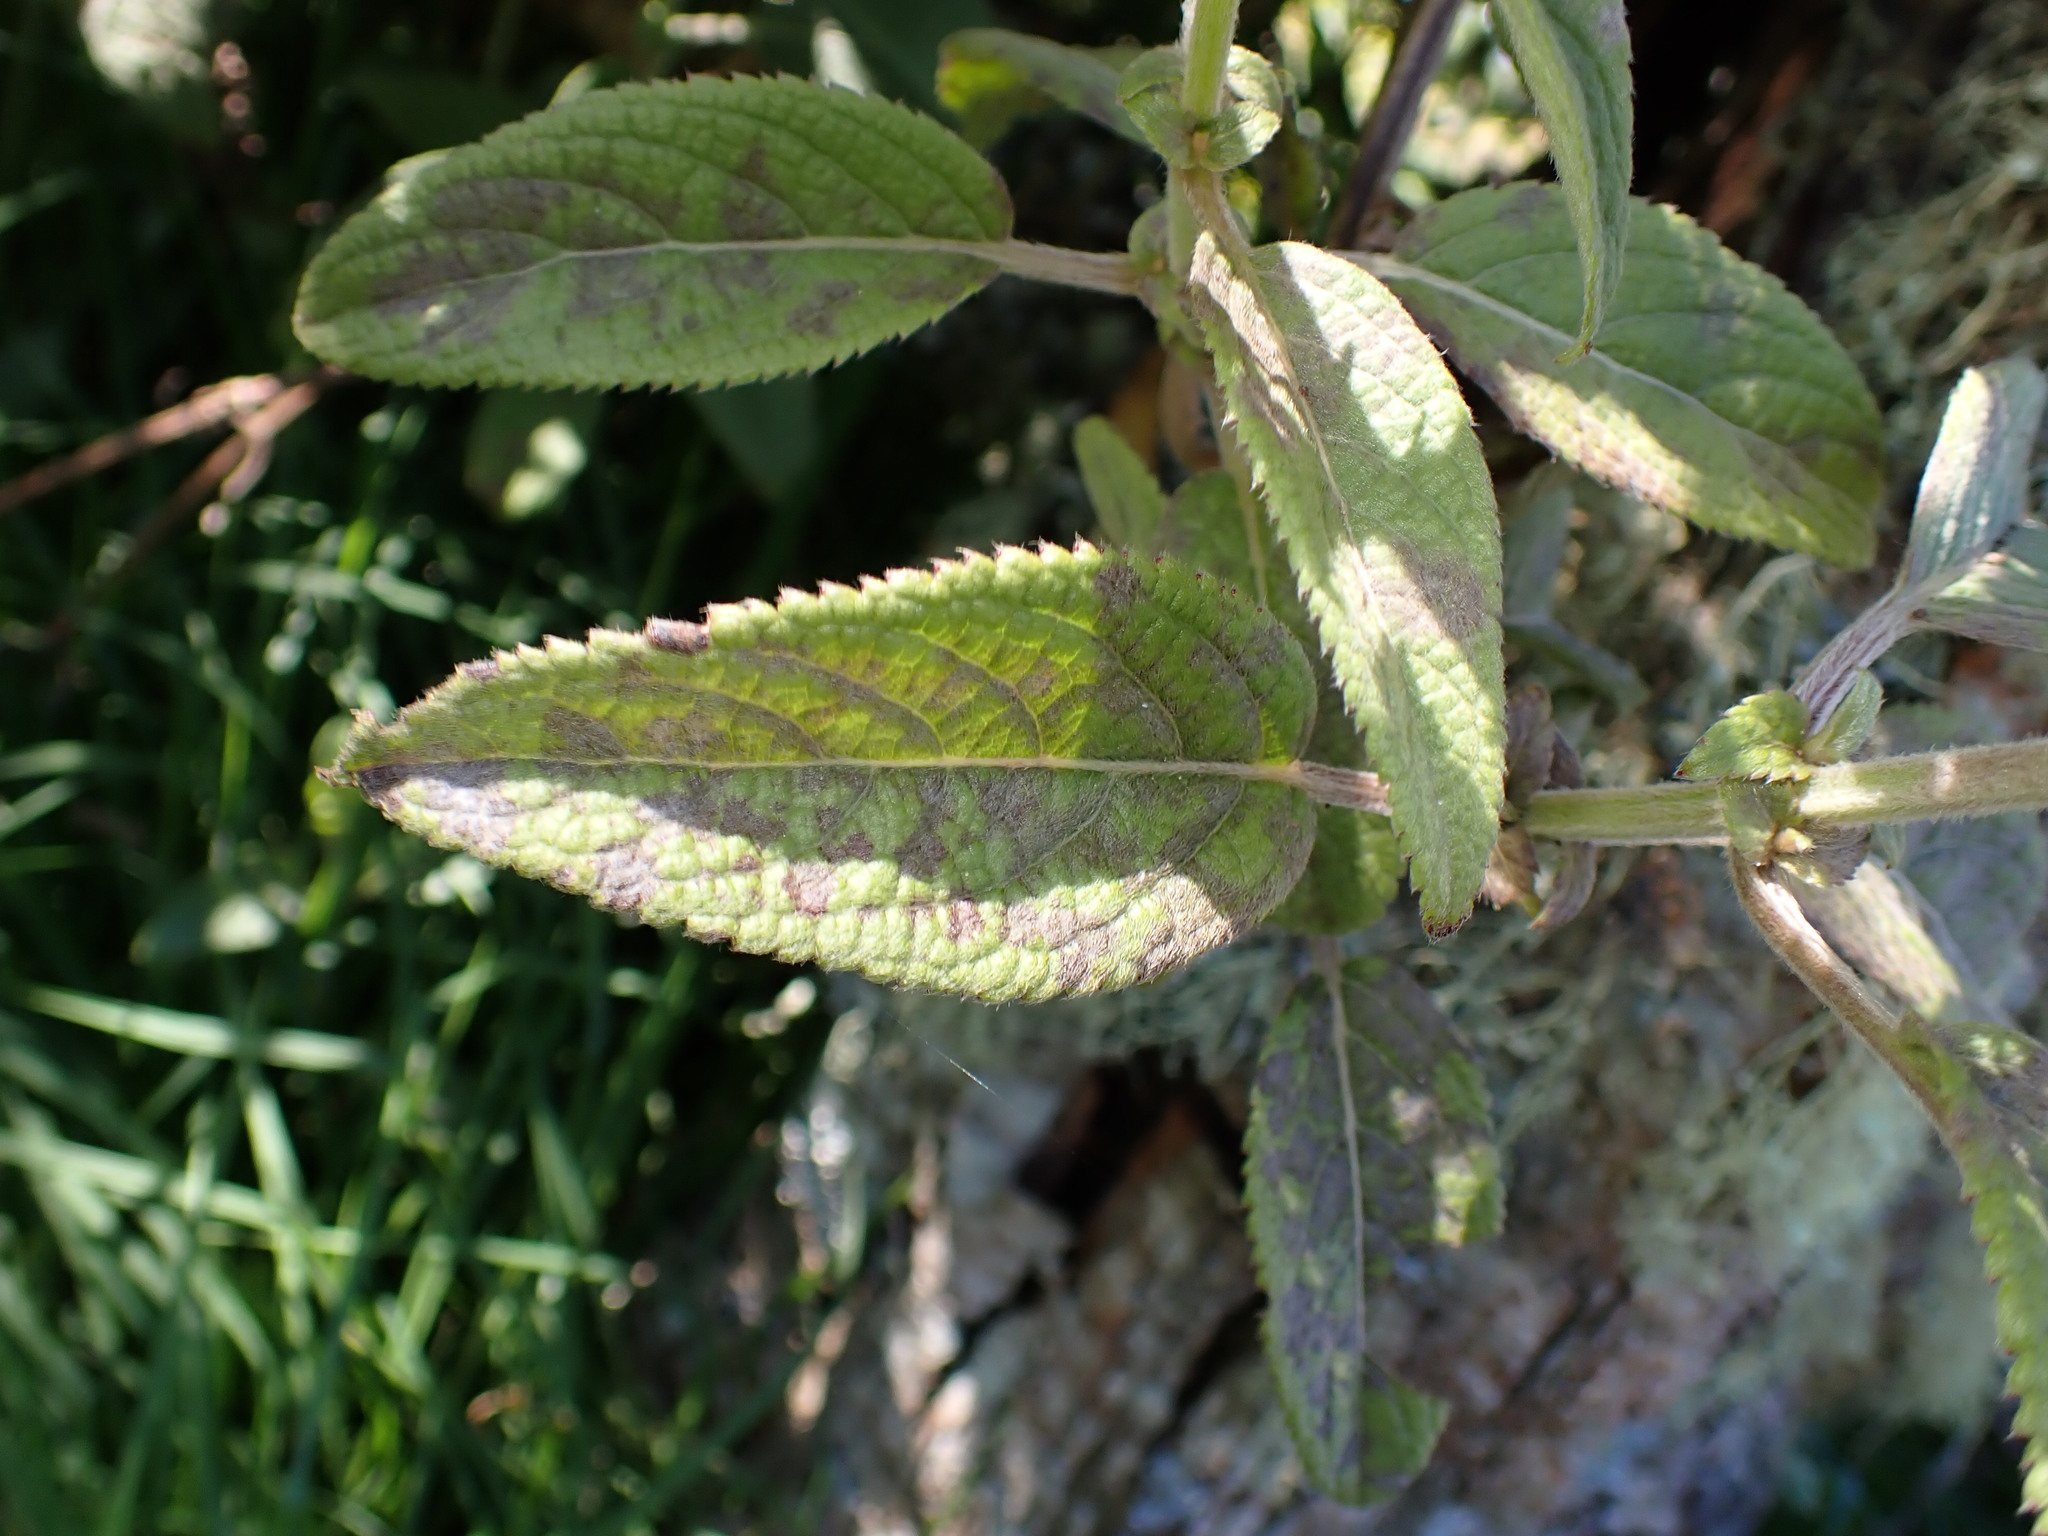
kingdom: Plantae
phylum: Tracheophyta
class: Magnoliopsida
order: Lamiales
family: Lamiaceae
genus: Phyllostegia
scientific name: Phyllostegia brevidens
